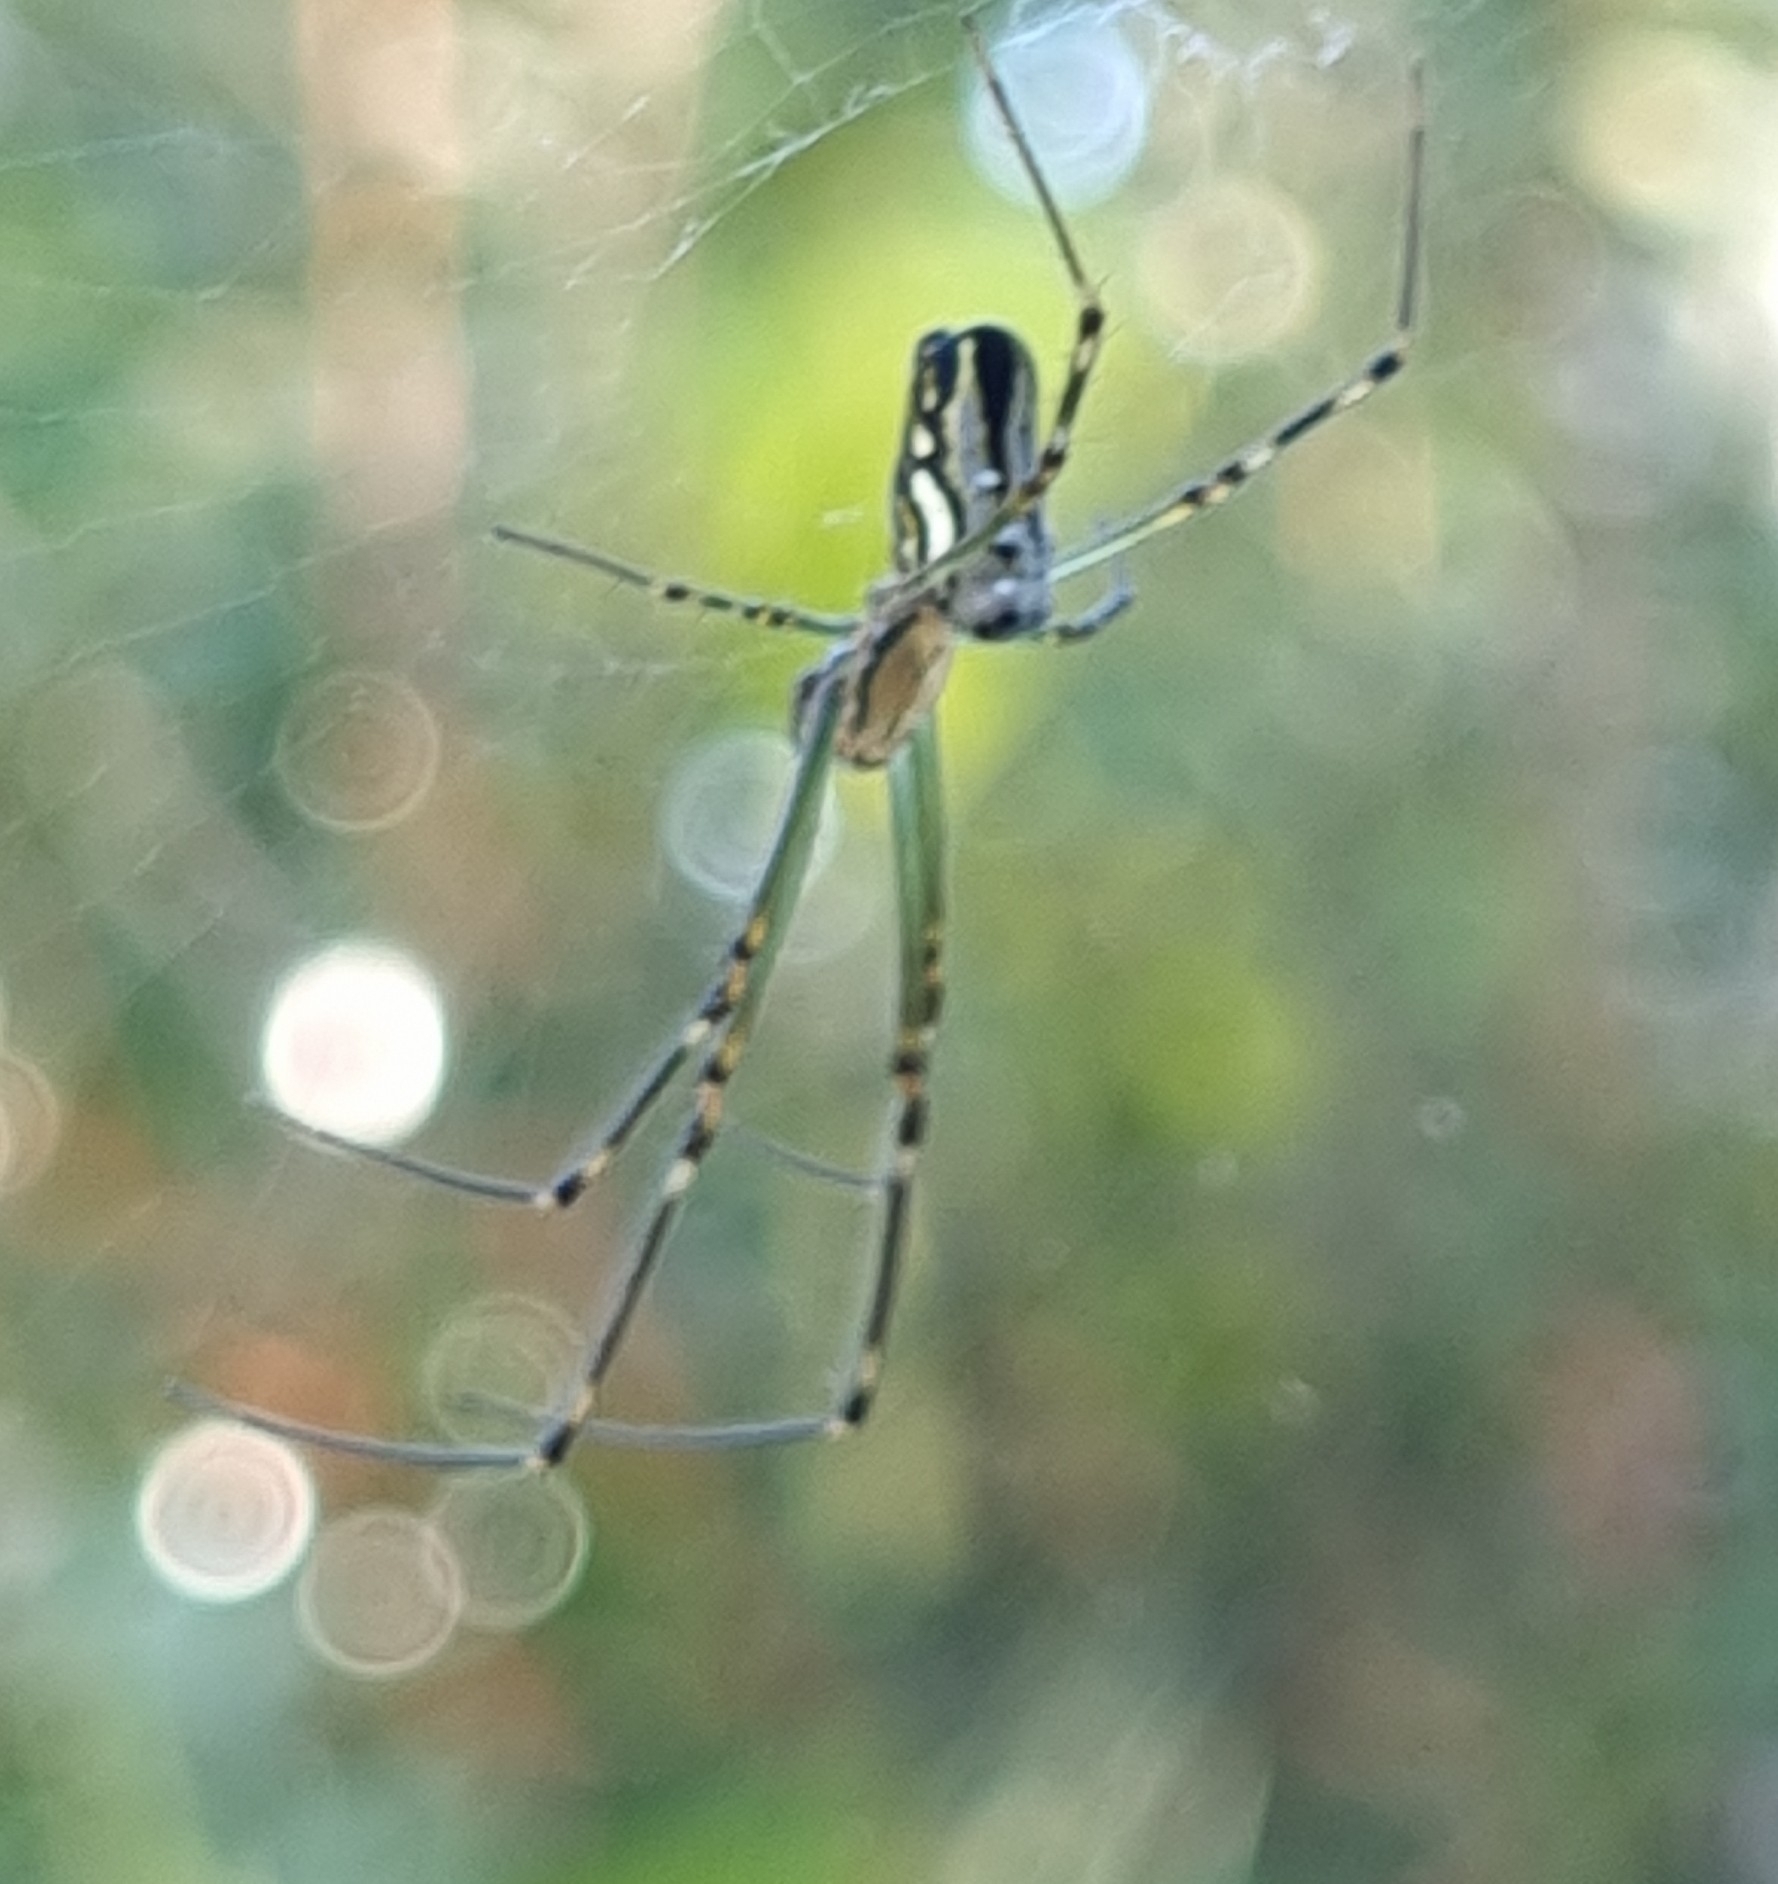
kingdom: Animalia
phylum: Arthropoda
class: Arachnida
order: Araneae
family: Tetragnathidae
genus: Leucauge
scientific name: Leucauge dromedaria
